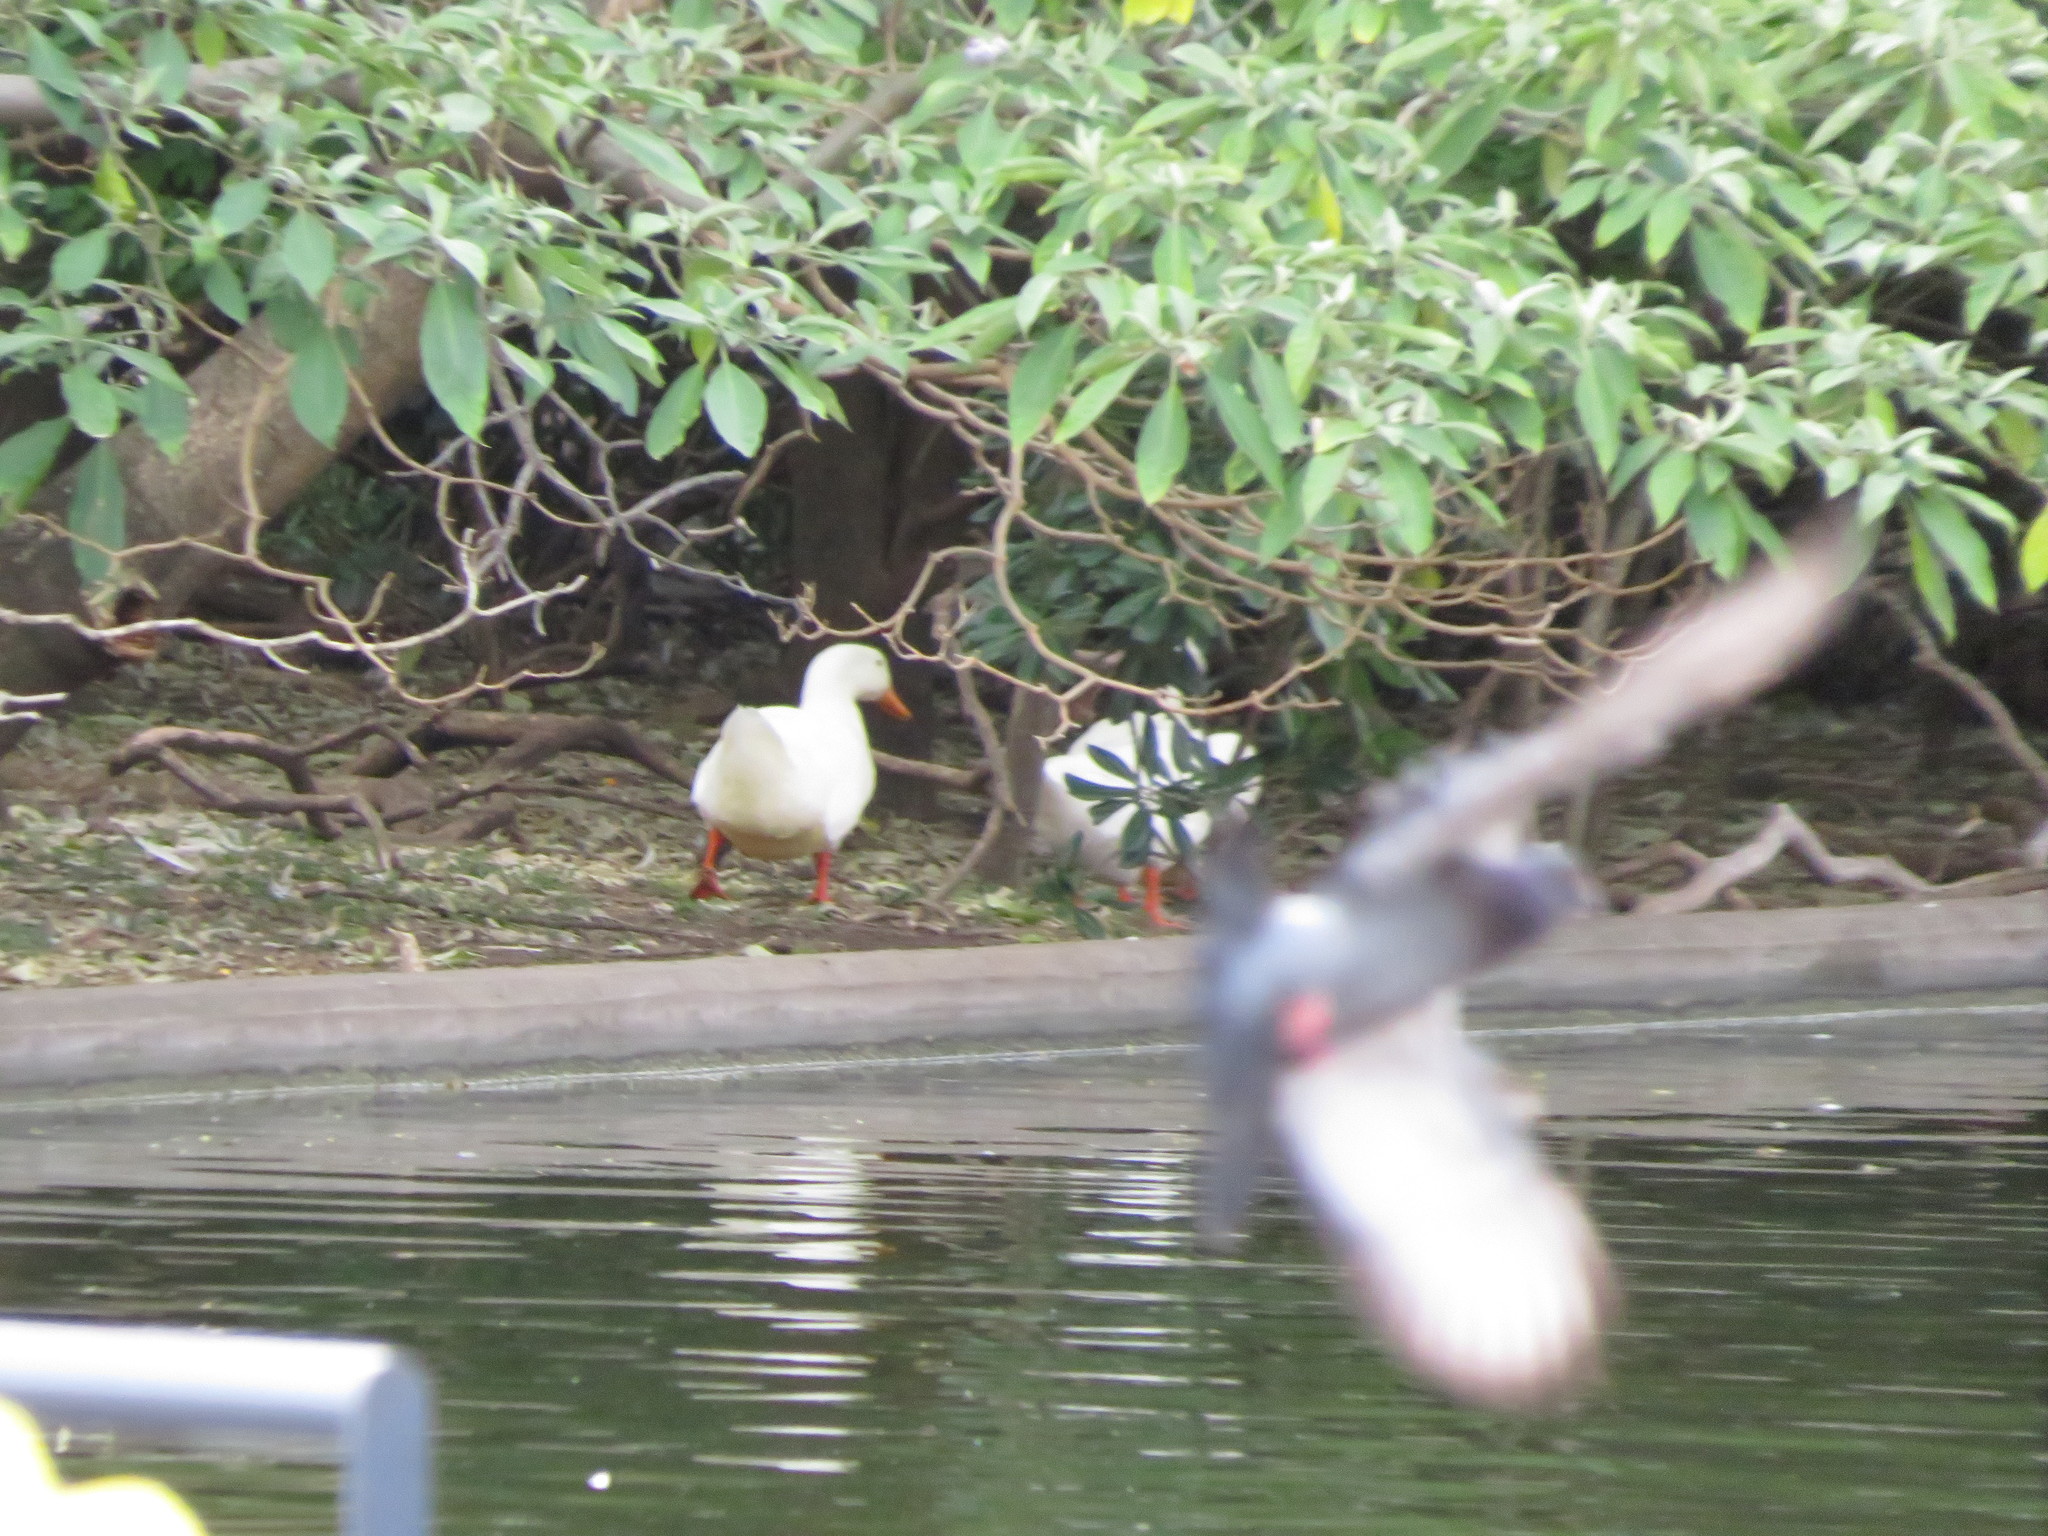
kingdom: Animalia
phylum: Chordata
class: Aves
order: Anseriformes
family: Anatidae
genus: Anas
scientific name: Anas platyrhynchos
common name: Mallard
